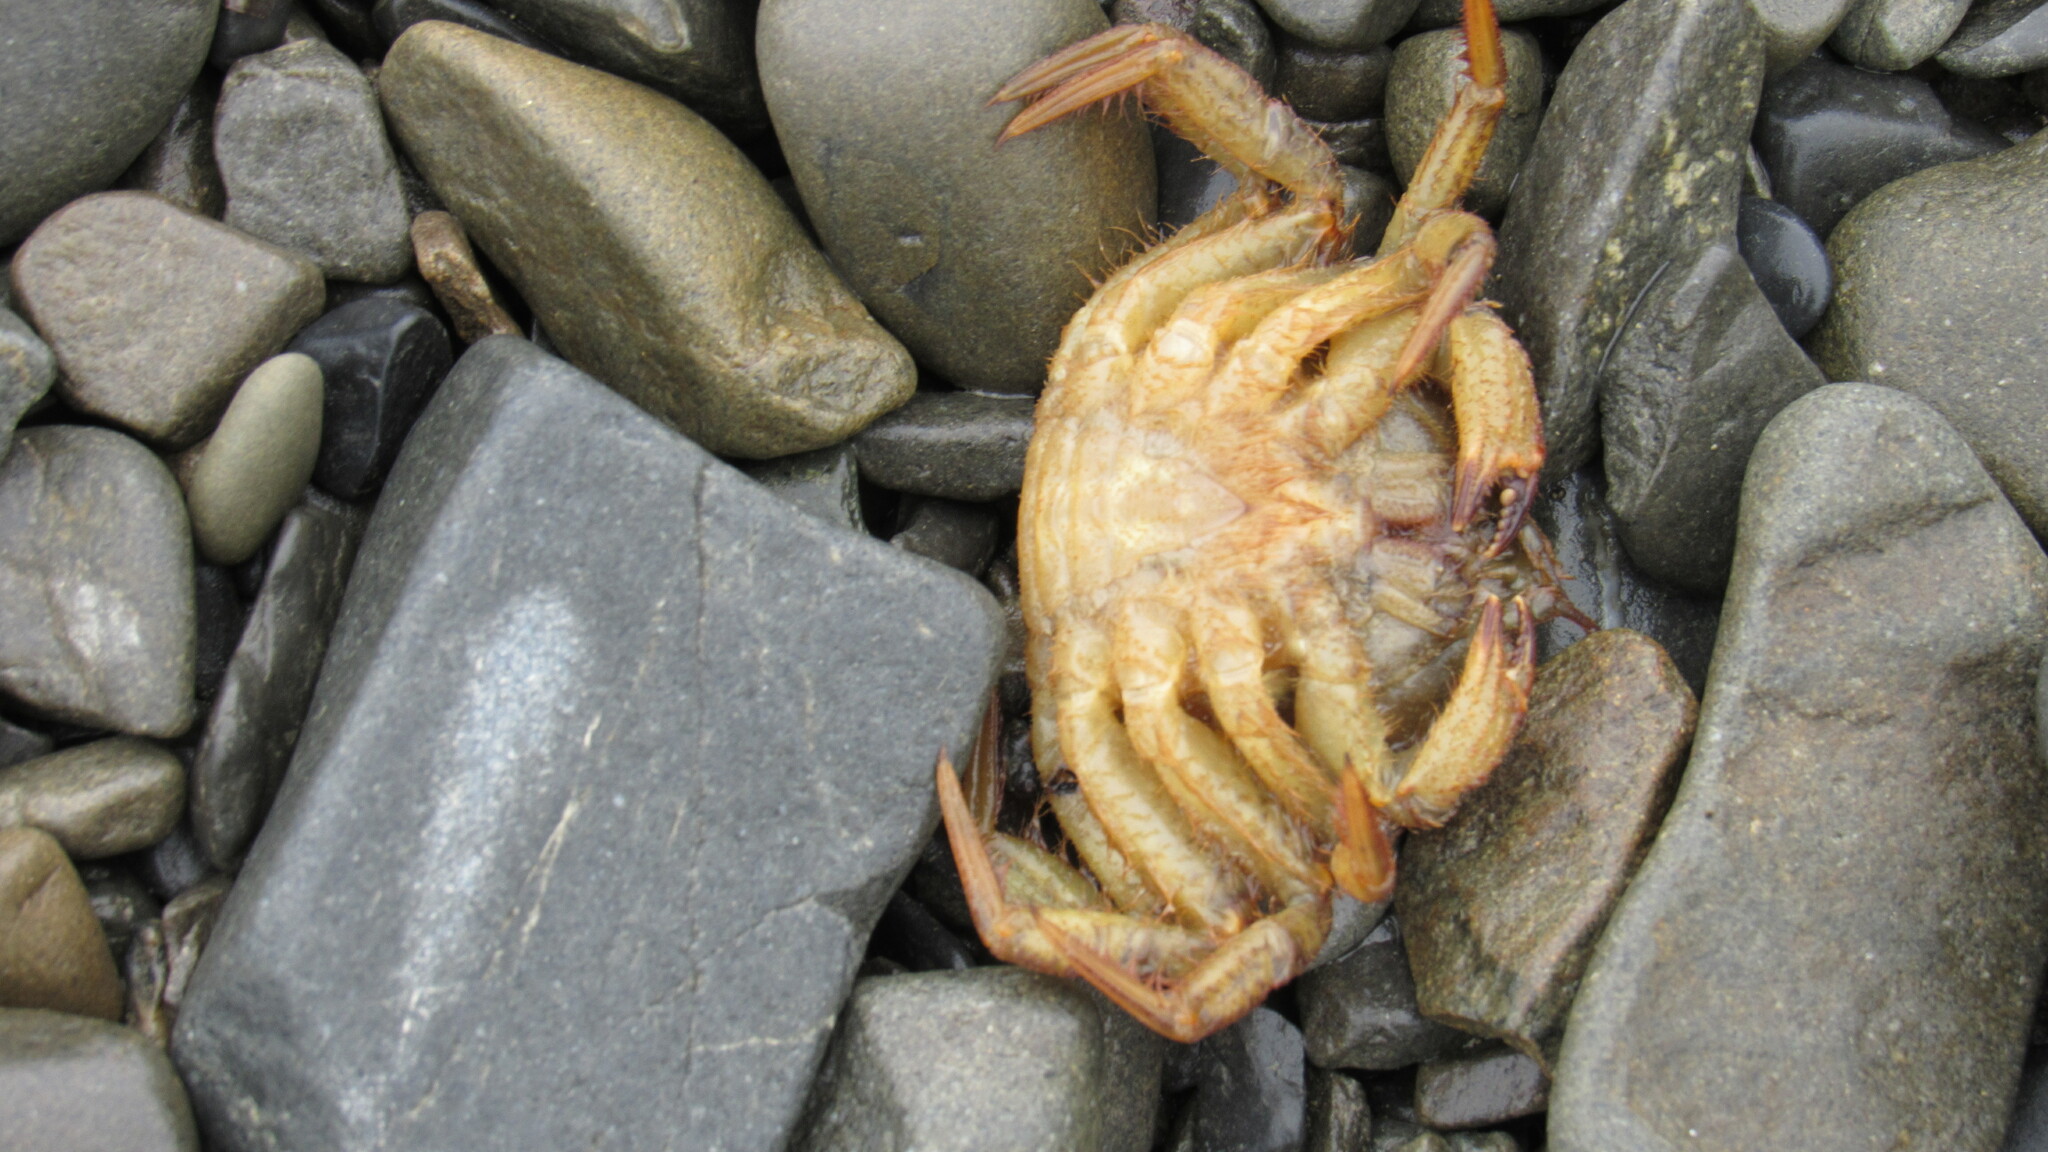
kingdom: Animalia
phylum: Arthropoda
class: Malacostraca
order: Decapoda
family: Cheiragonidae
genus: Telmessus
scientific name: Telmessus cheiragonus
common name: Helmet crab
